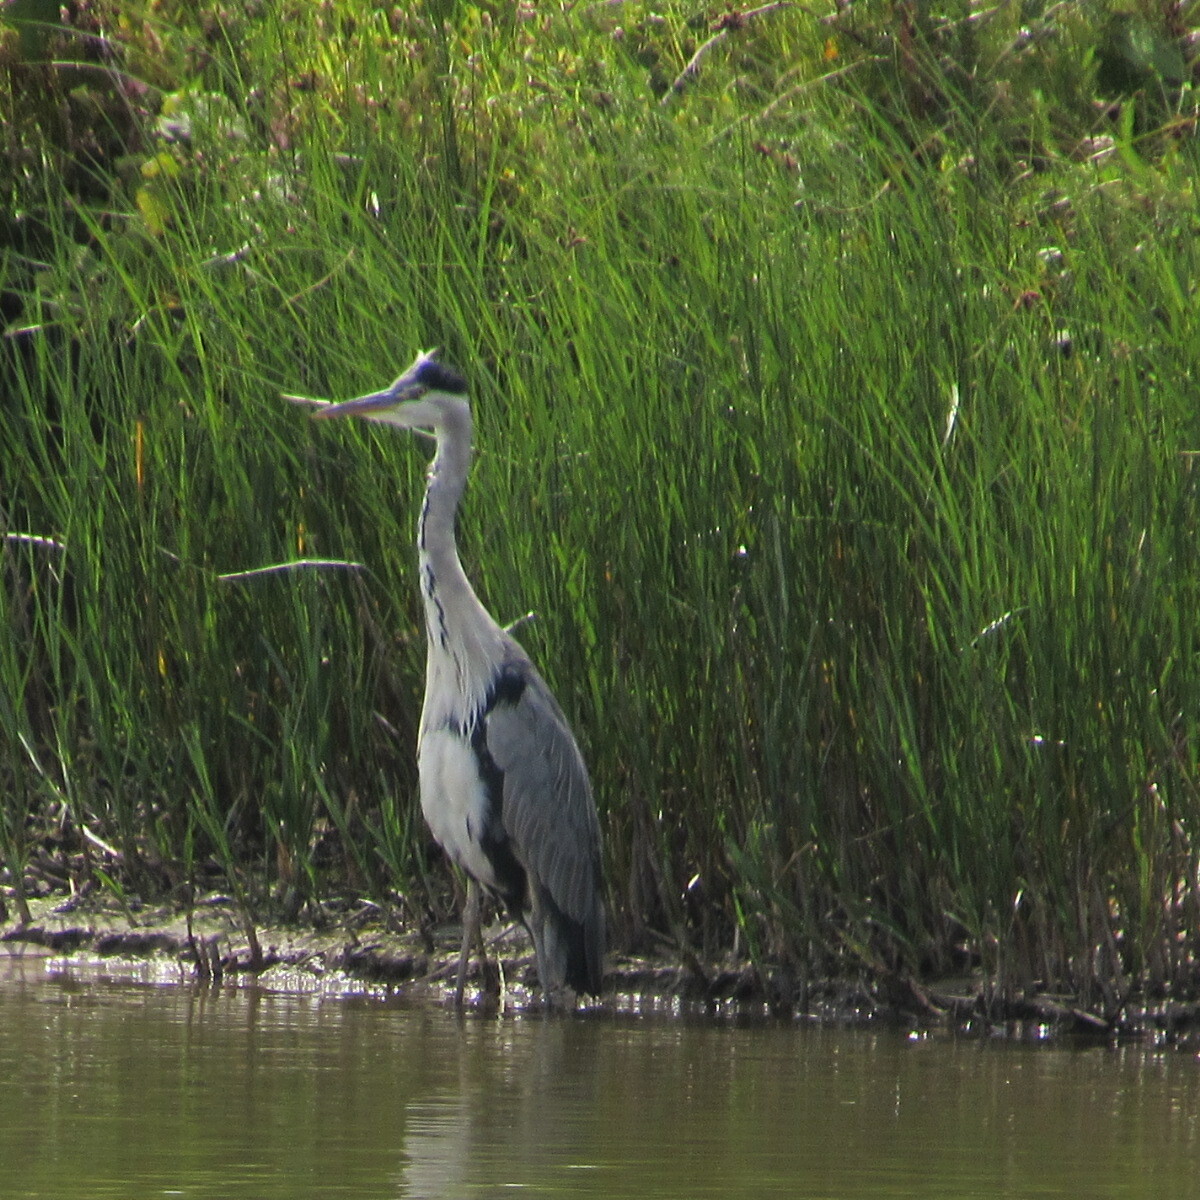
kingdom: Animalia
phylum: Chordata
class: Aves
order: Pelecaniformes
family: Ardeidae
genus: Ardea
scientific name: Ardea cinerea
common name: Grey heron
